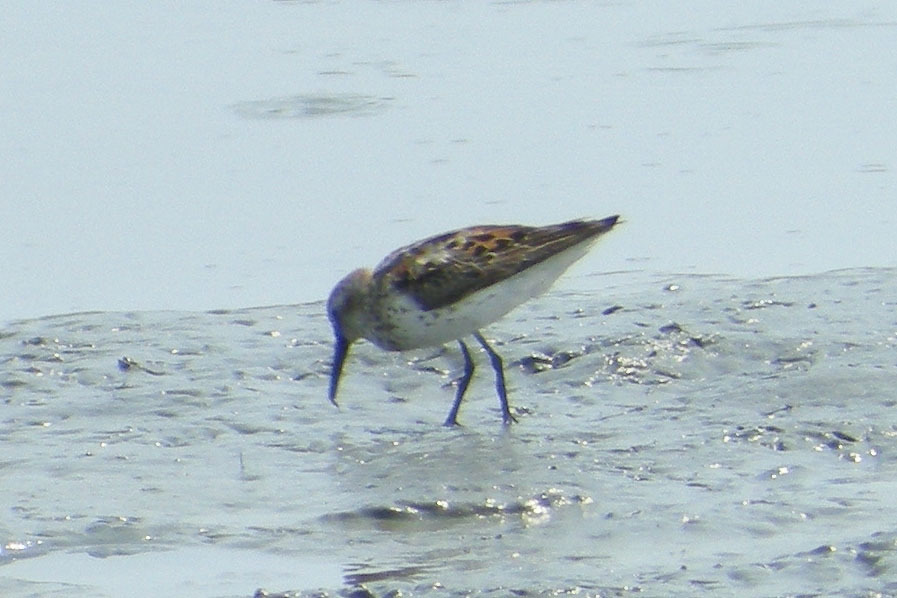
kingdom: Animalia
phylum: Chordata
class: Aves
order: Charadriiformes
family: Scolopacidae
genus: Calidris
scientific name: Calidris mauri
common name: Western sandpiper
